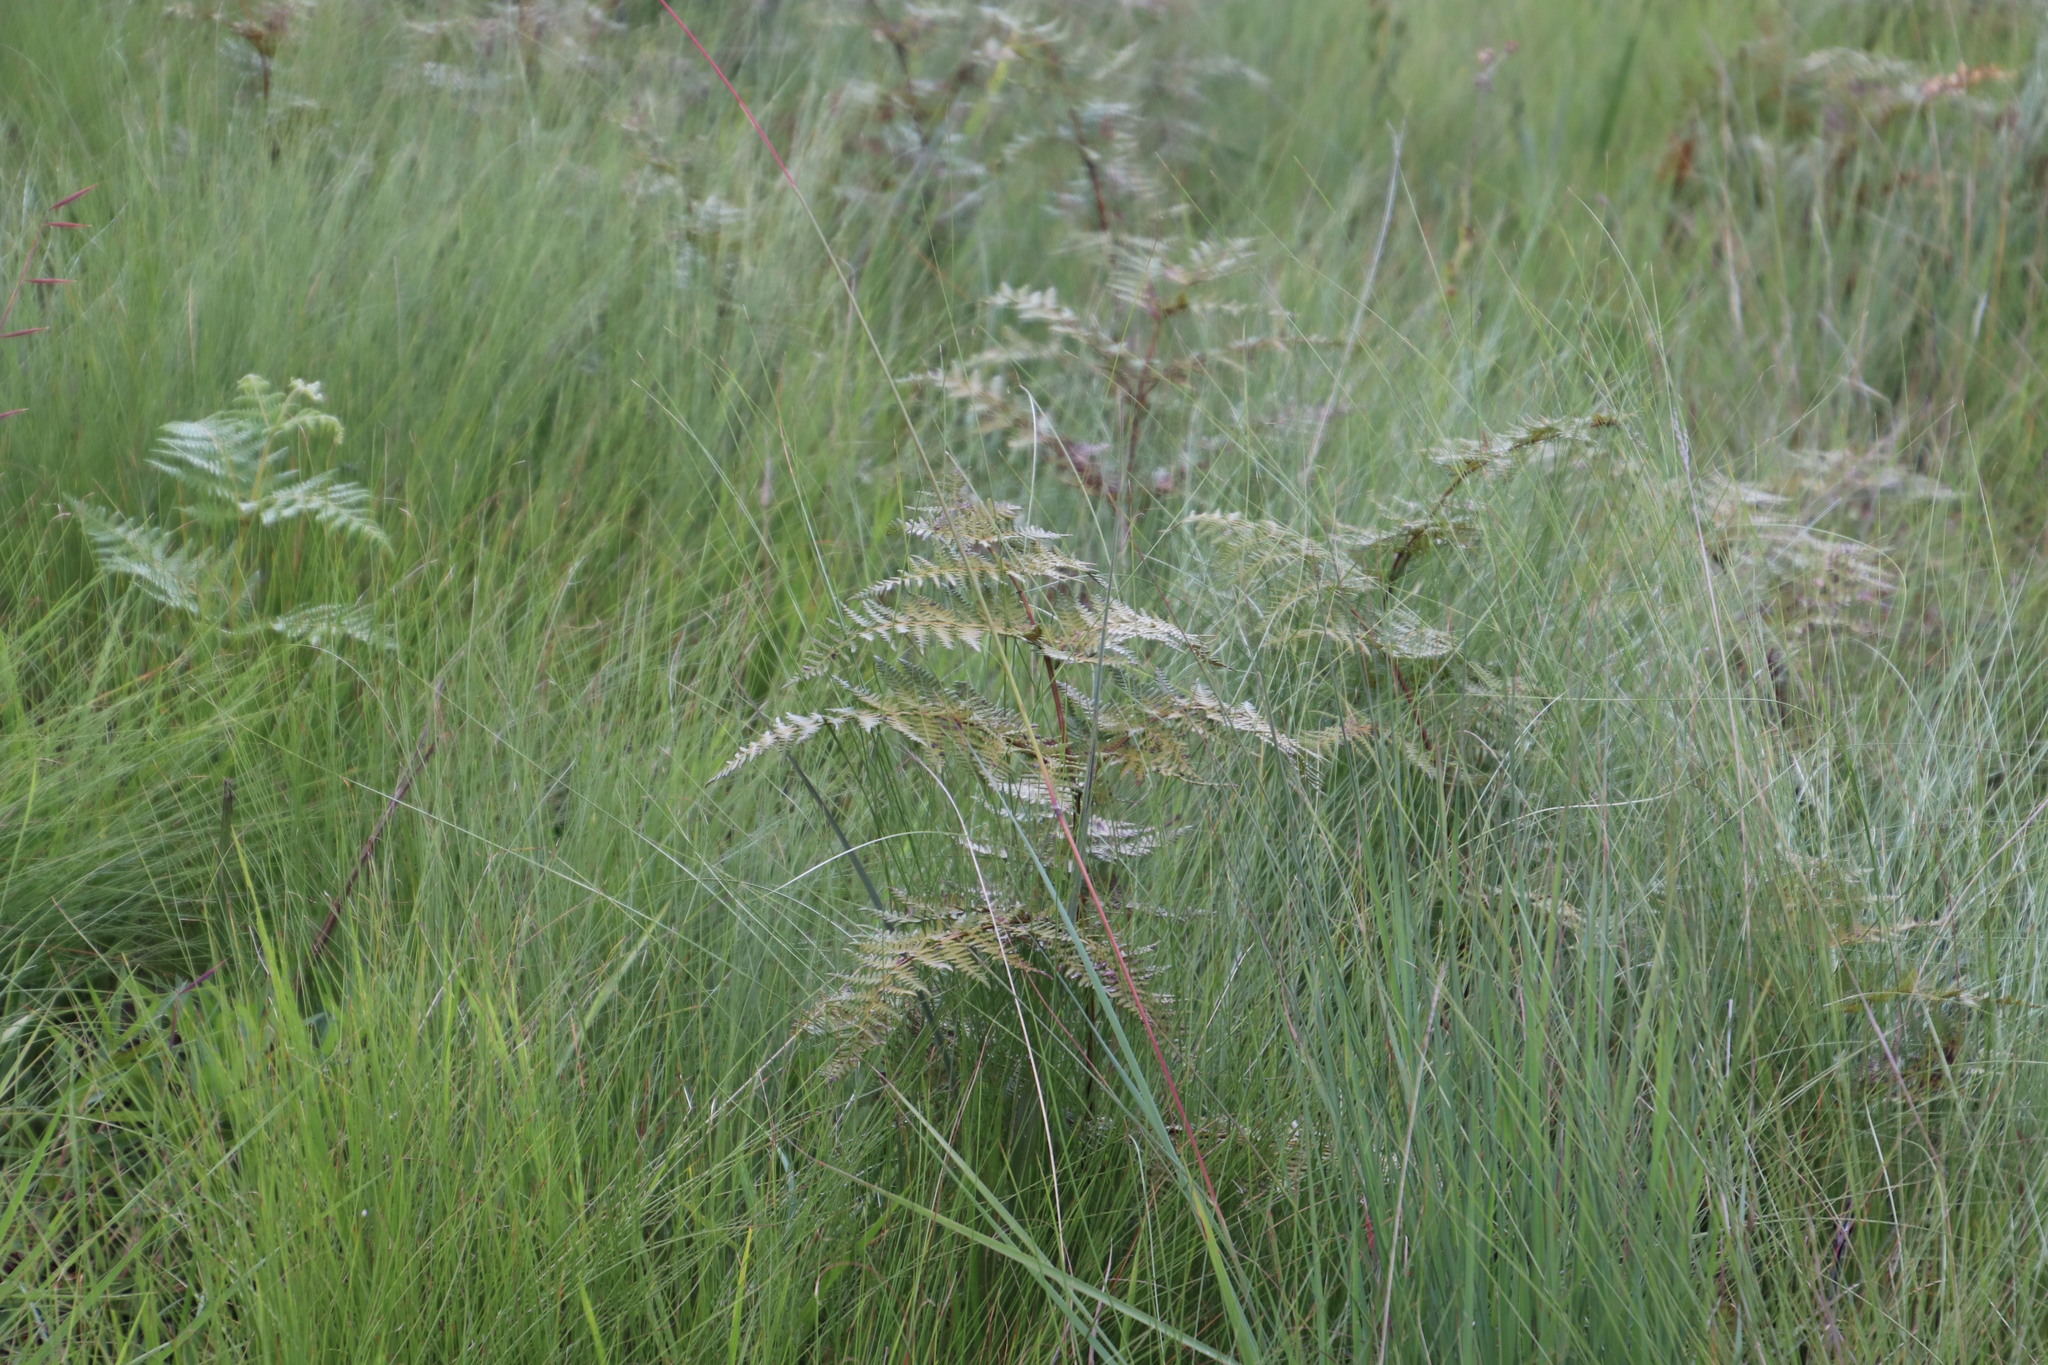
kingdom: Plantae
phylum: Tracheophyta
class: Polypodiopsida
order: Polypodiales
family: Dennstaedtiaceae
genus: Pteridium
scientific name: Pteridium aquilinum
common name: Bracken
